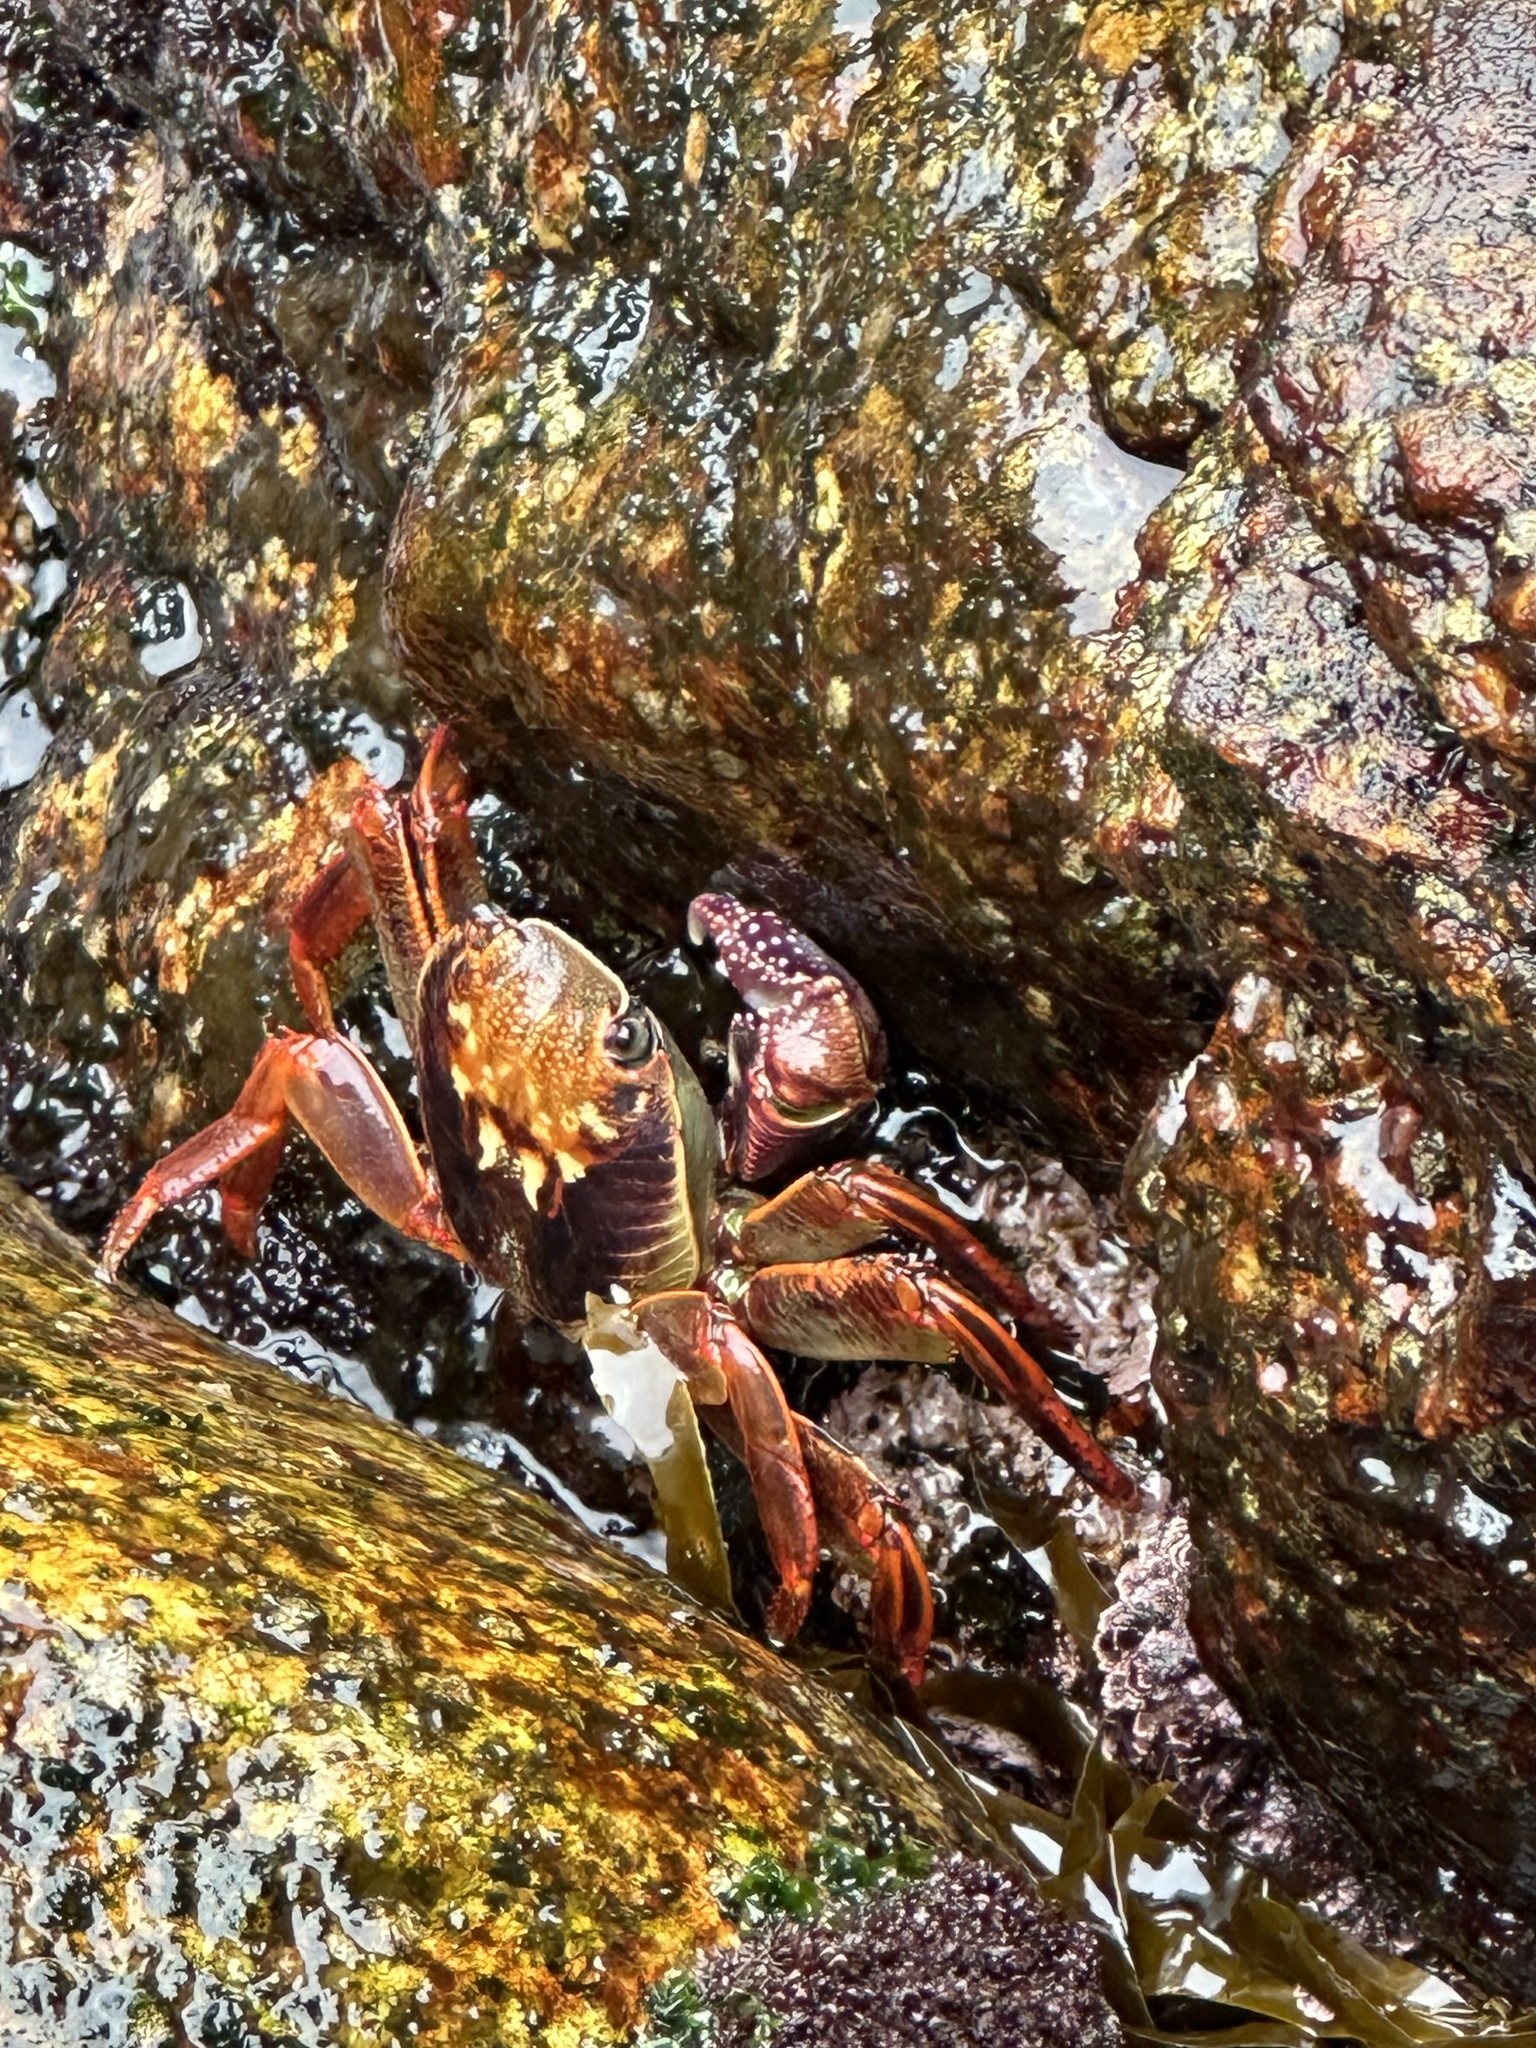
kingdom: Animalia
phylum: Arthropoda
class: Malacostraca
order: Decapoda
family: Grapsidae
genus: Leptograpsus
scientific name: Leptograpsus variegatus
